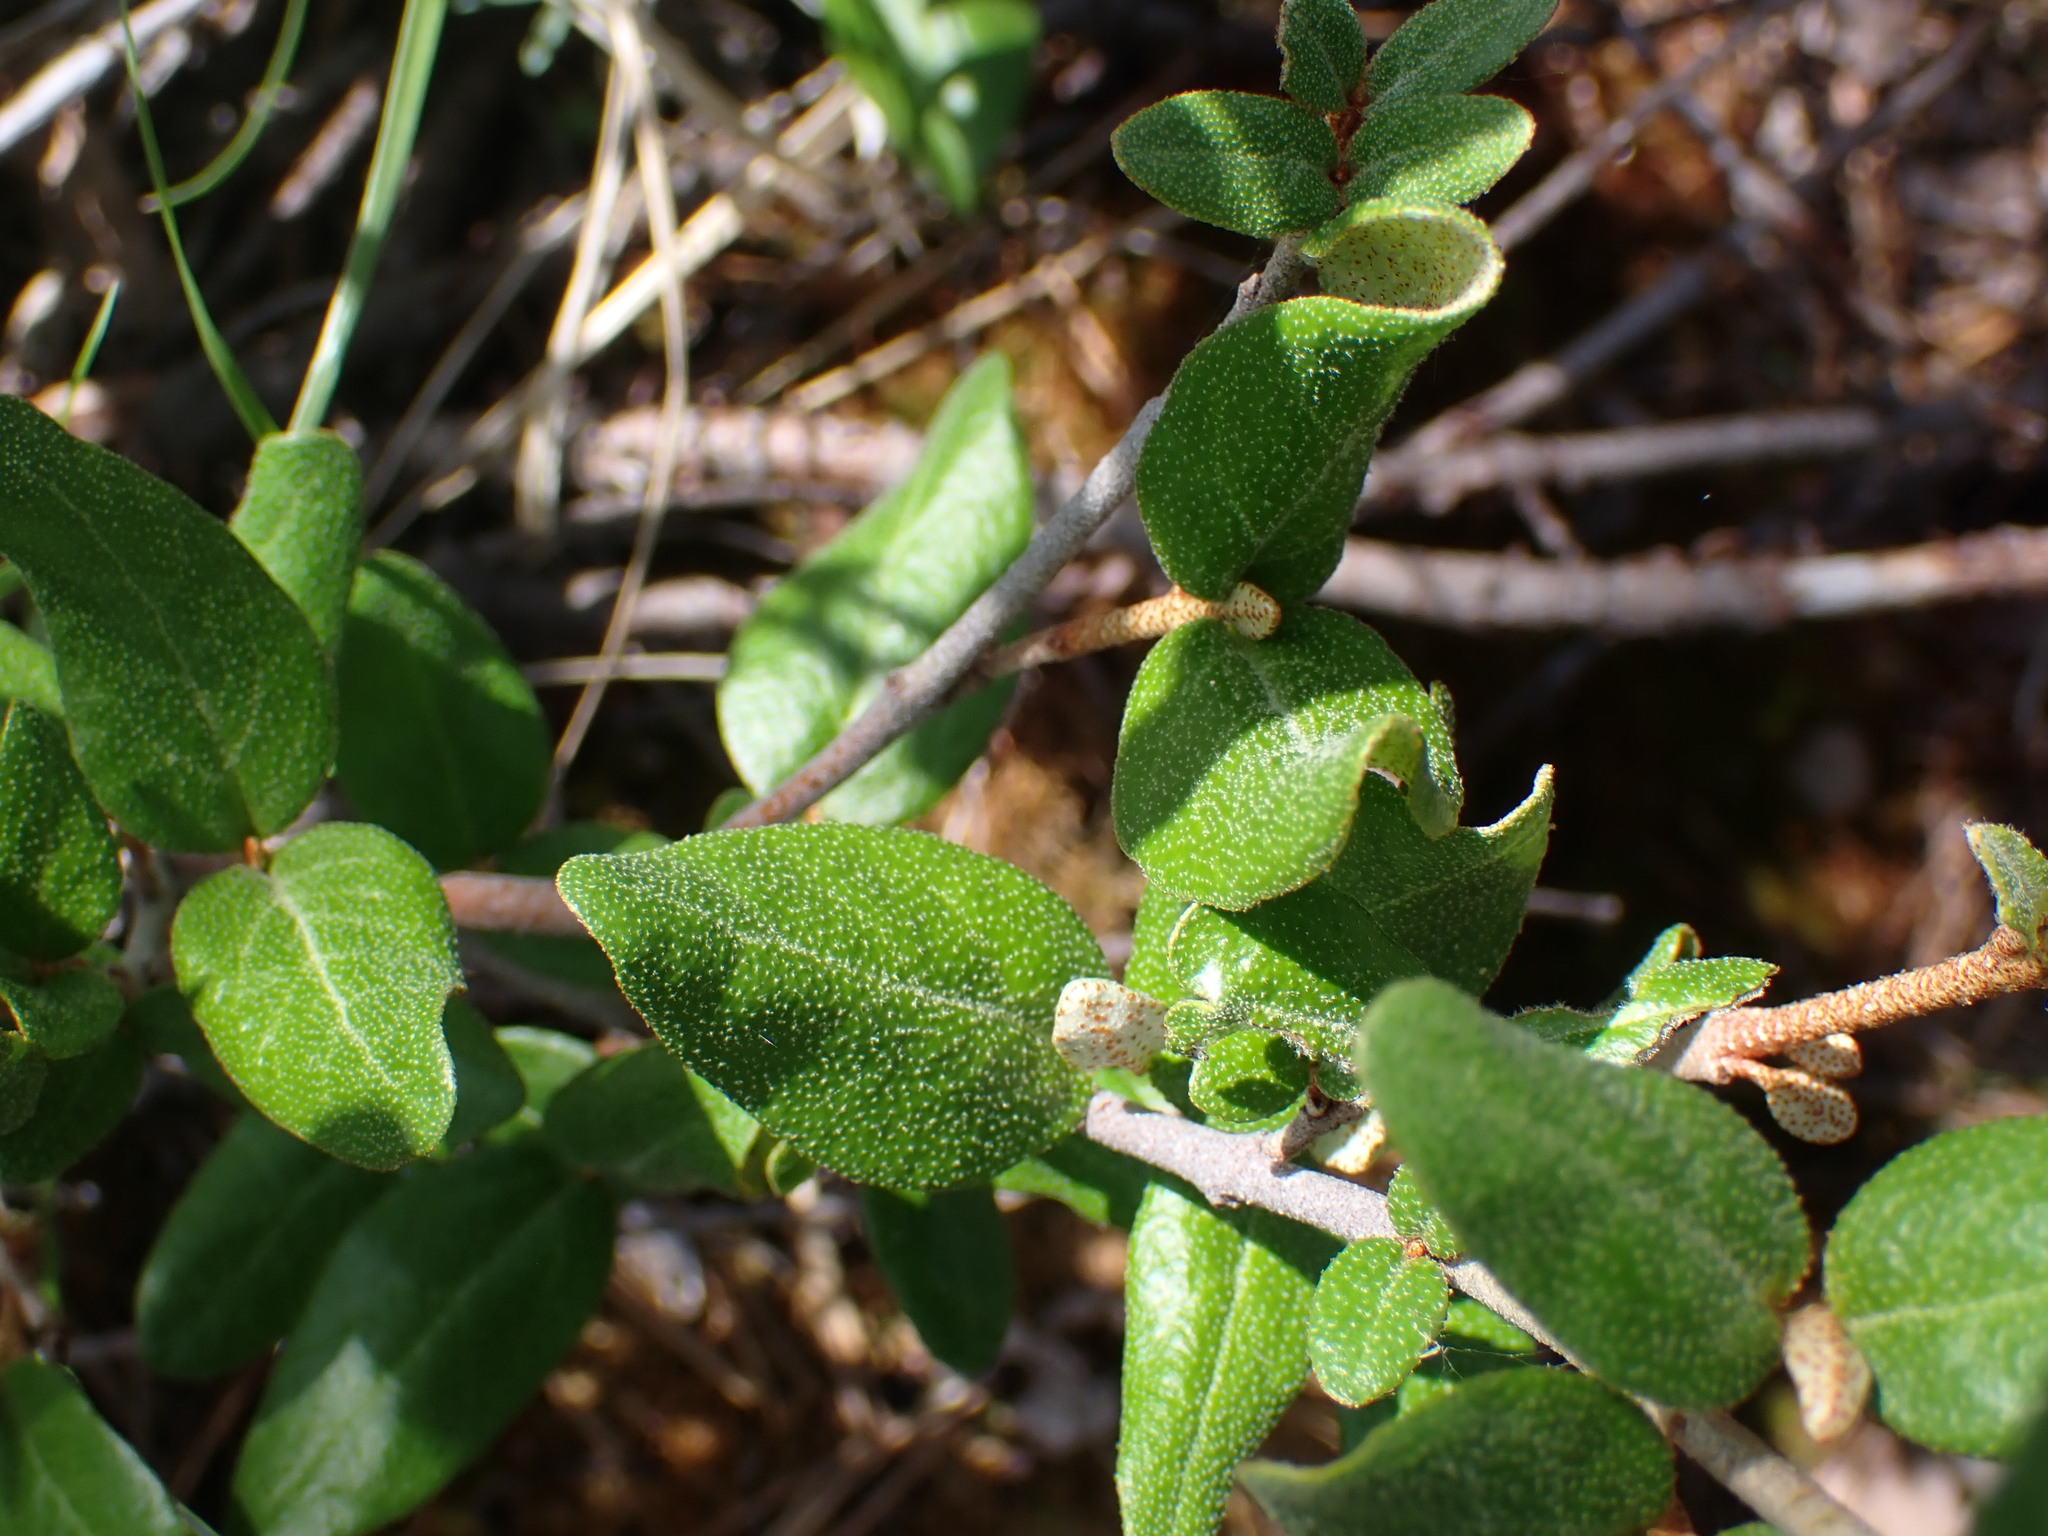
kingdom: Plantae
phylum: Tracheophyta
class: Magnoliopsida
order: Rosales
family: Elaeagnaceae
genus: Shepherdia
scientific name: Shepherdia canadensis
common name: Soapberry
